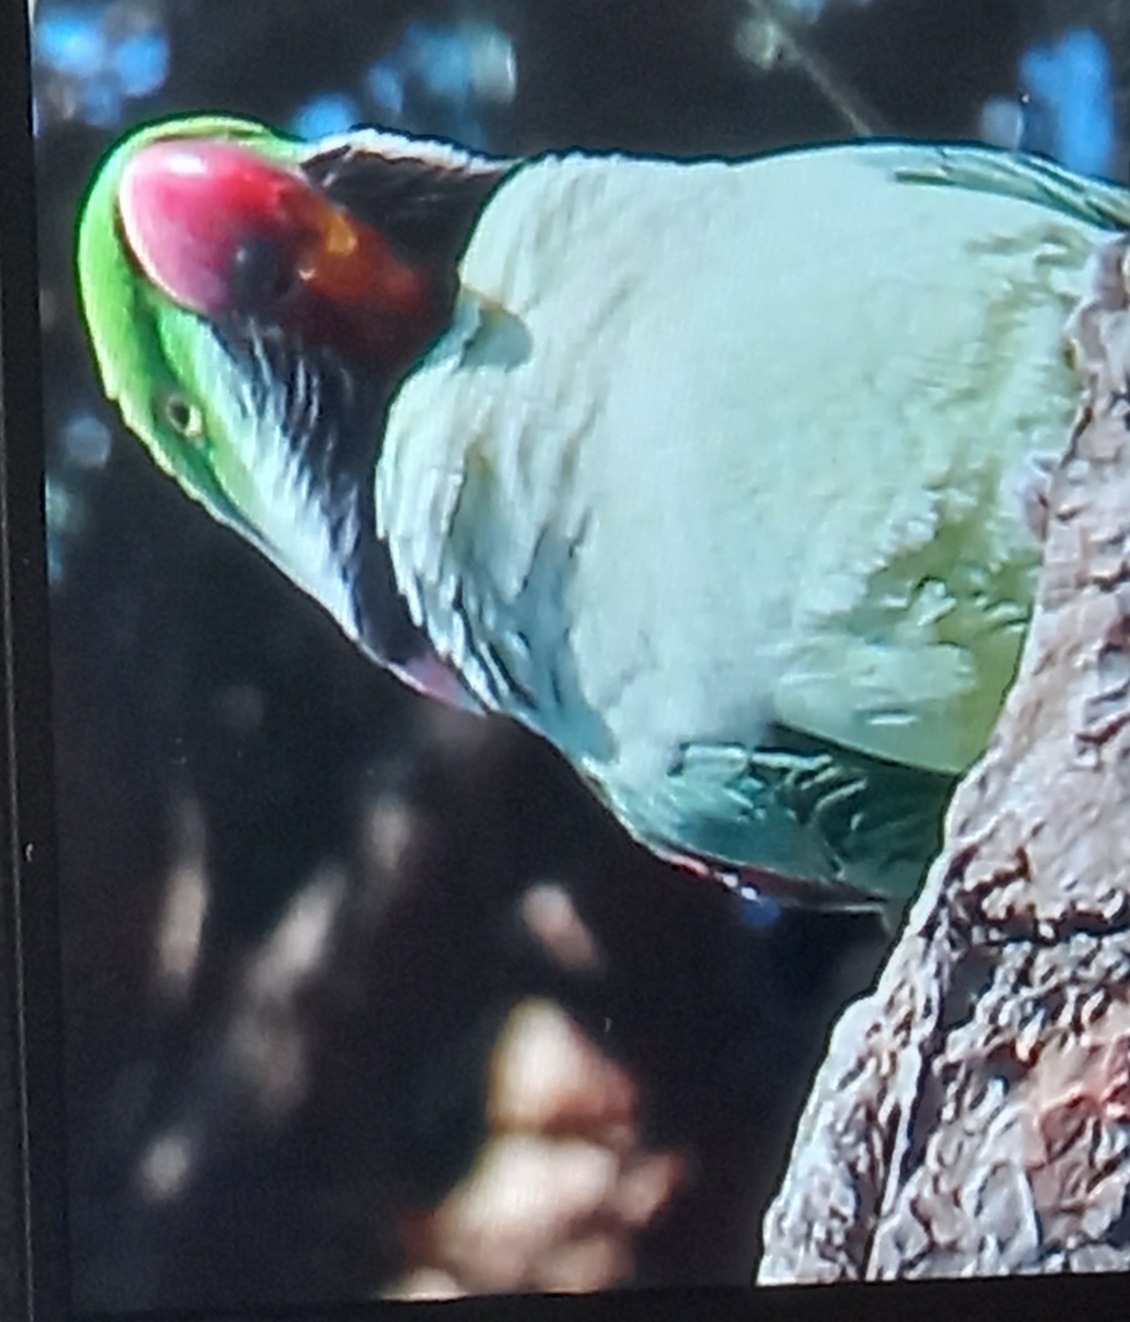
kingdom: Animalia
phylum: Chordata
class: Aves
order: Psittaciformes
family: Psittacidae
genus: Psittacula
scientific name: Psittacula eupatria
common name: Alexandrine parakeet
